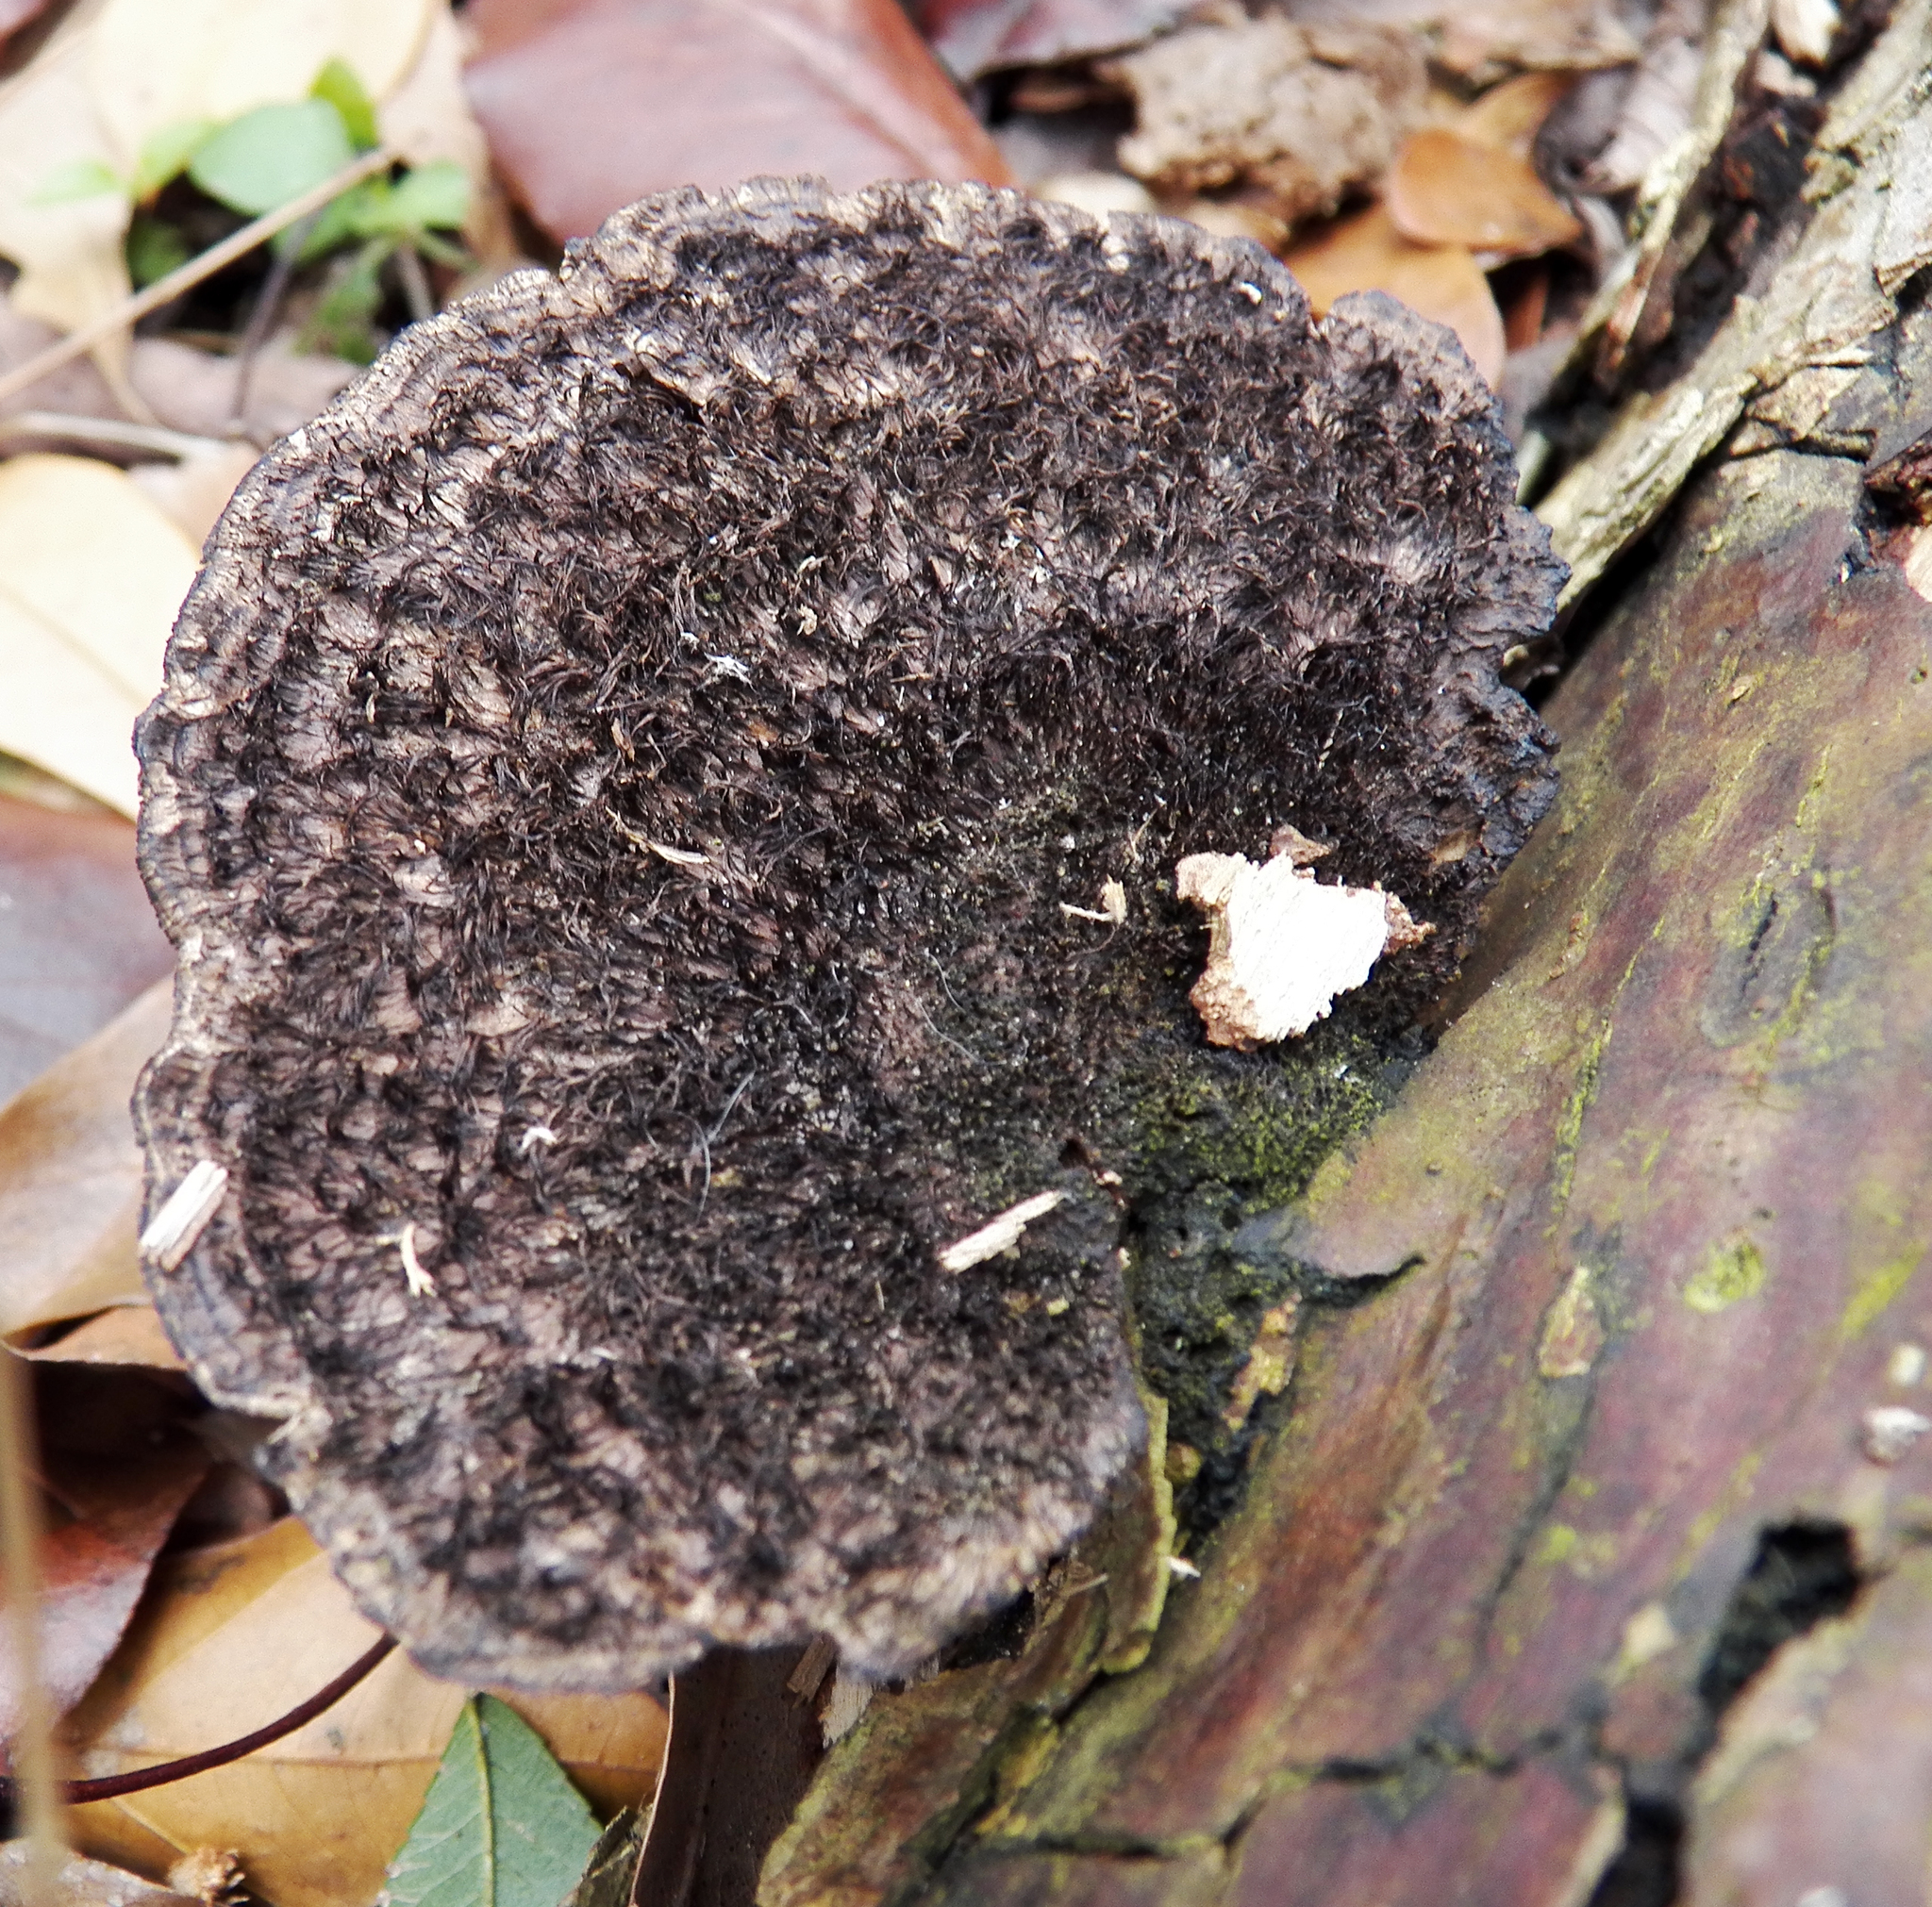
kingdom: Fungi
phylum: Basidiomycota
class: Agaricomycetes
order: Polyporales
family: Cerrenaceae
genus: Cerrena
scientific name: Cerrena hydnoides
